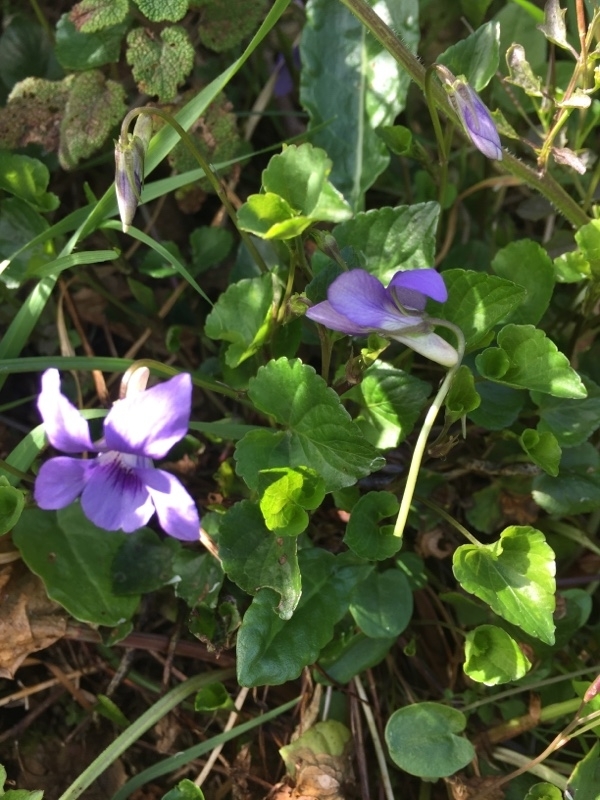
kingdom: Plantae
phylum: Tracheophyta
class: Magnoliopsida
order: Malpighiales
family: Violaceae
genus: Viola
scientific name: Viola riviniana
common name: Common dog-violet
